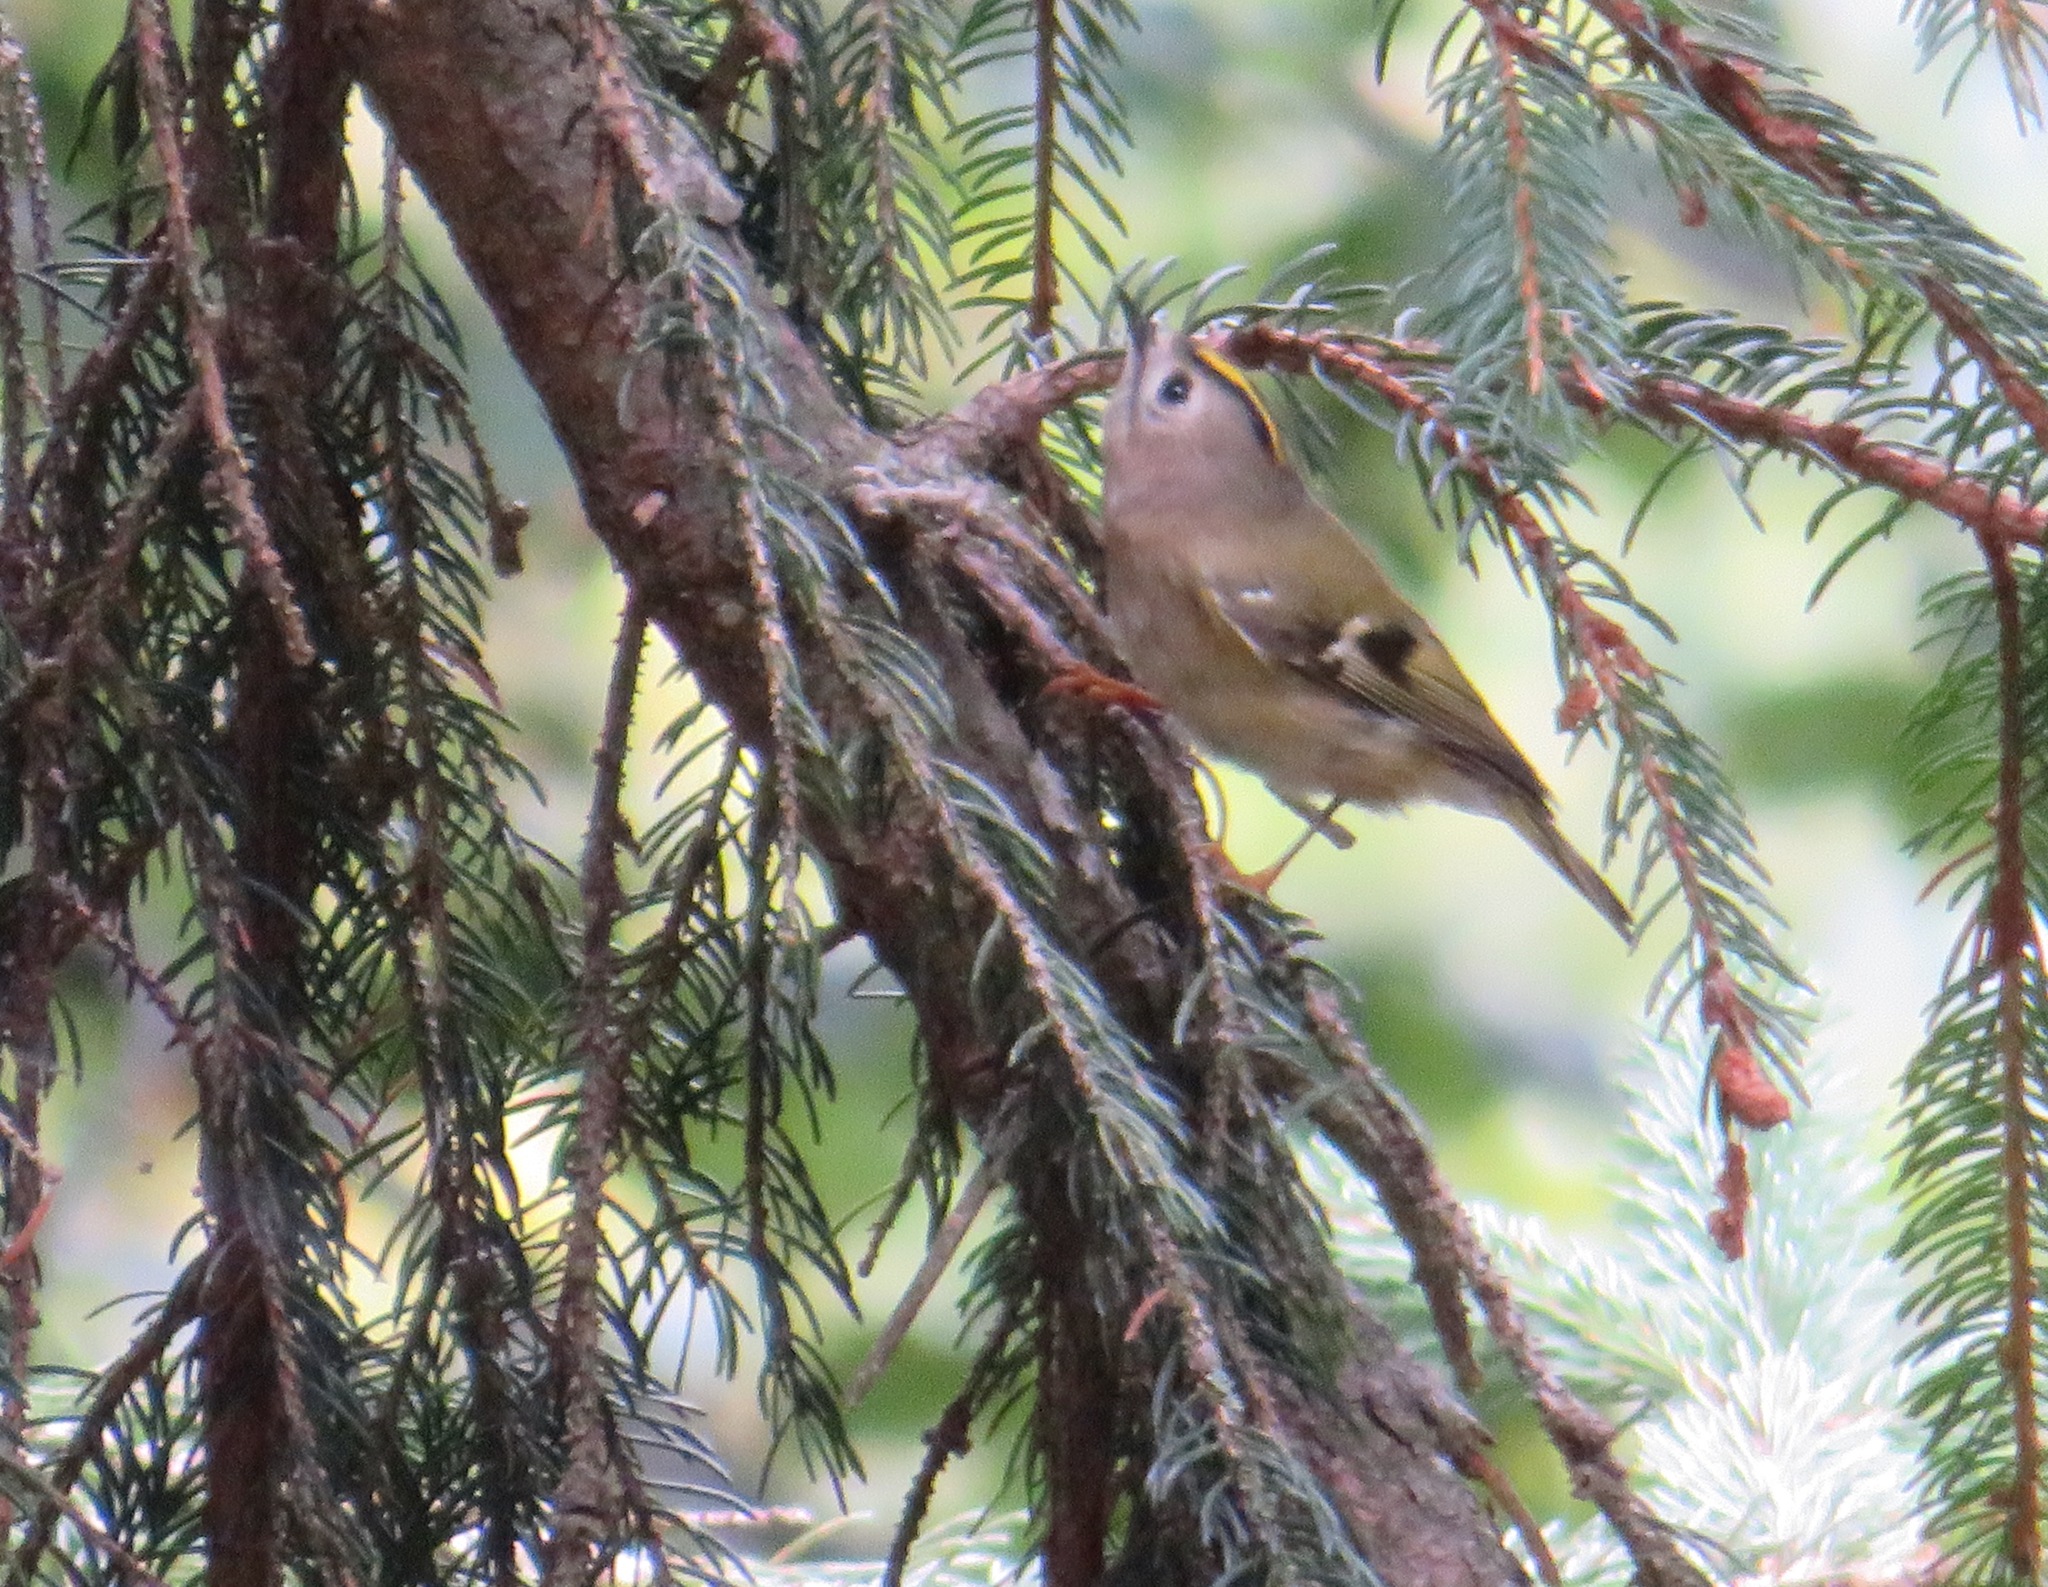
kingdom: Animalia
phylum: Chordata
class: Aves
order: Passeriformes
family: Regulidae
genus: Regulus
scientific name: Regulus regulus
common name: Goldcrest
